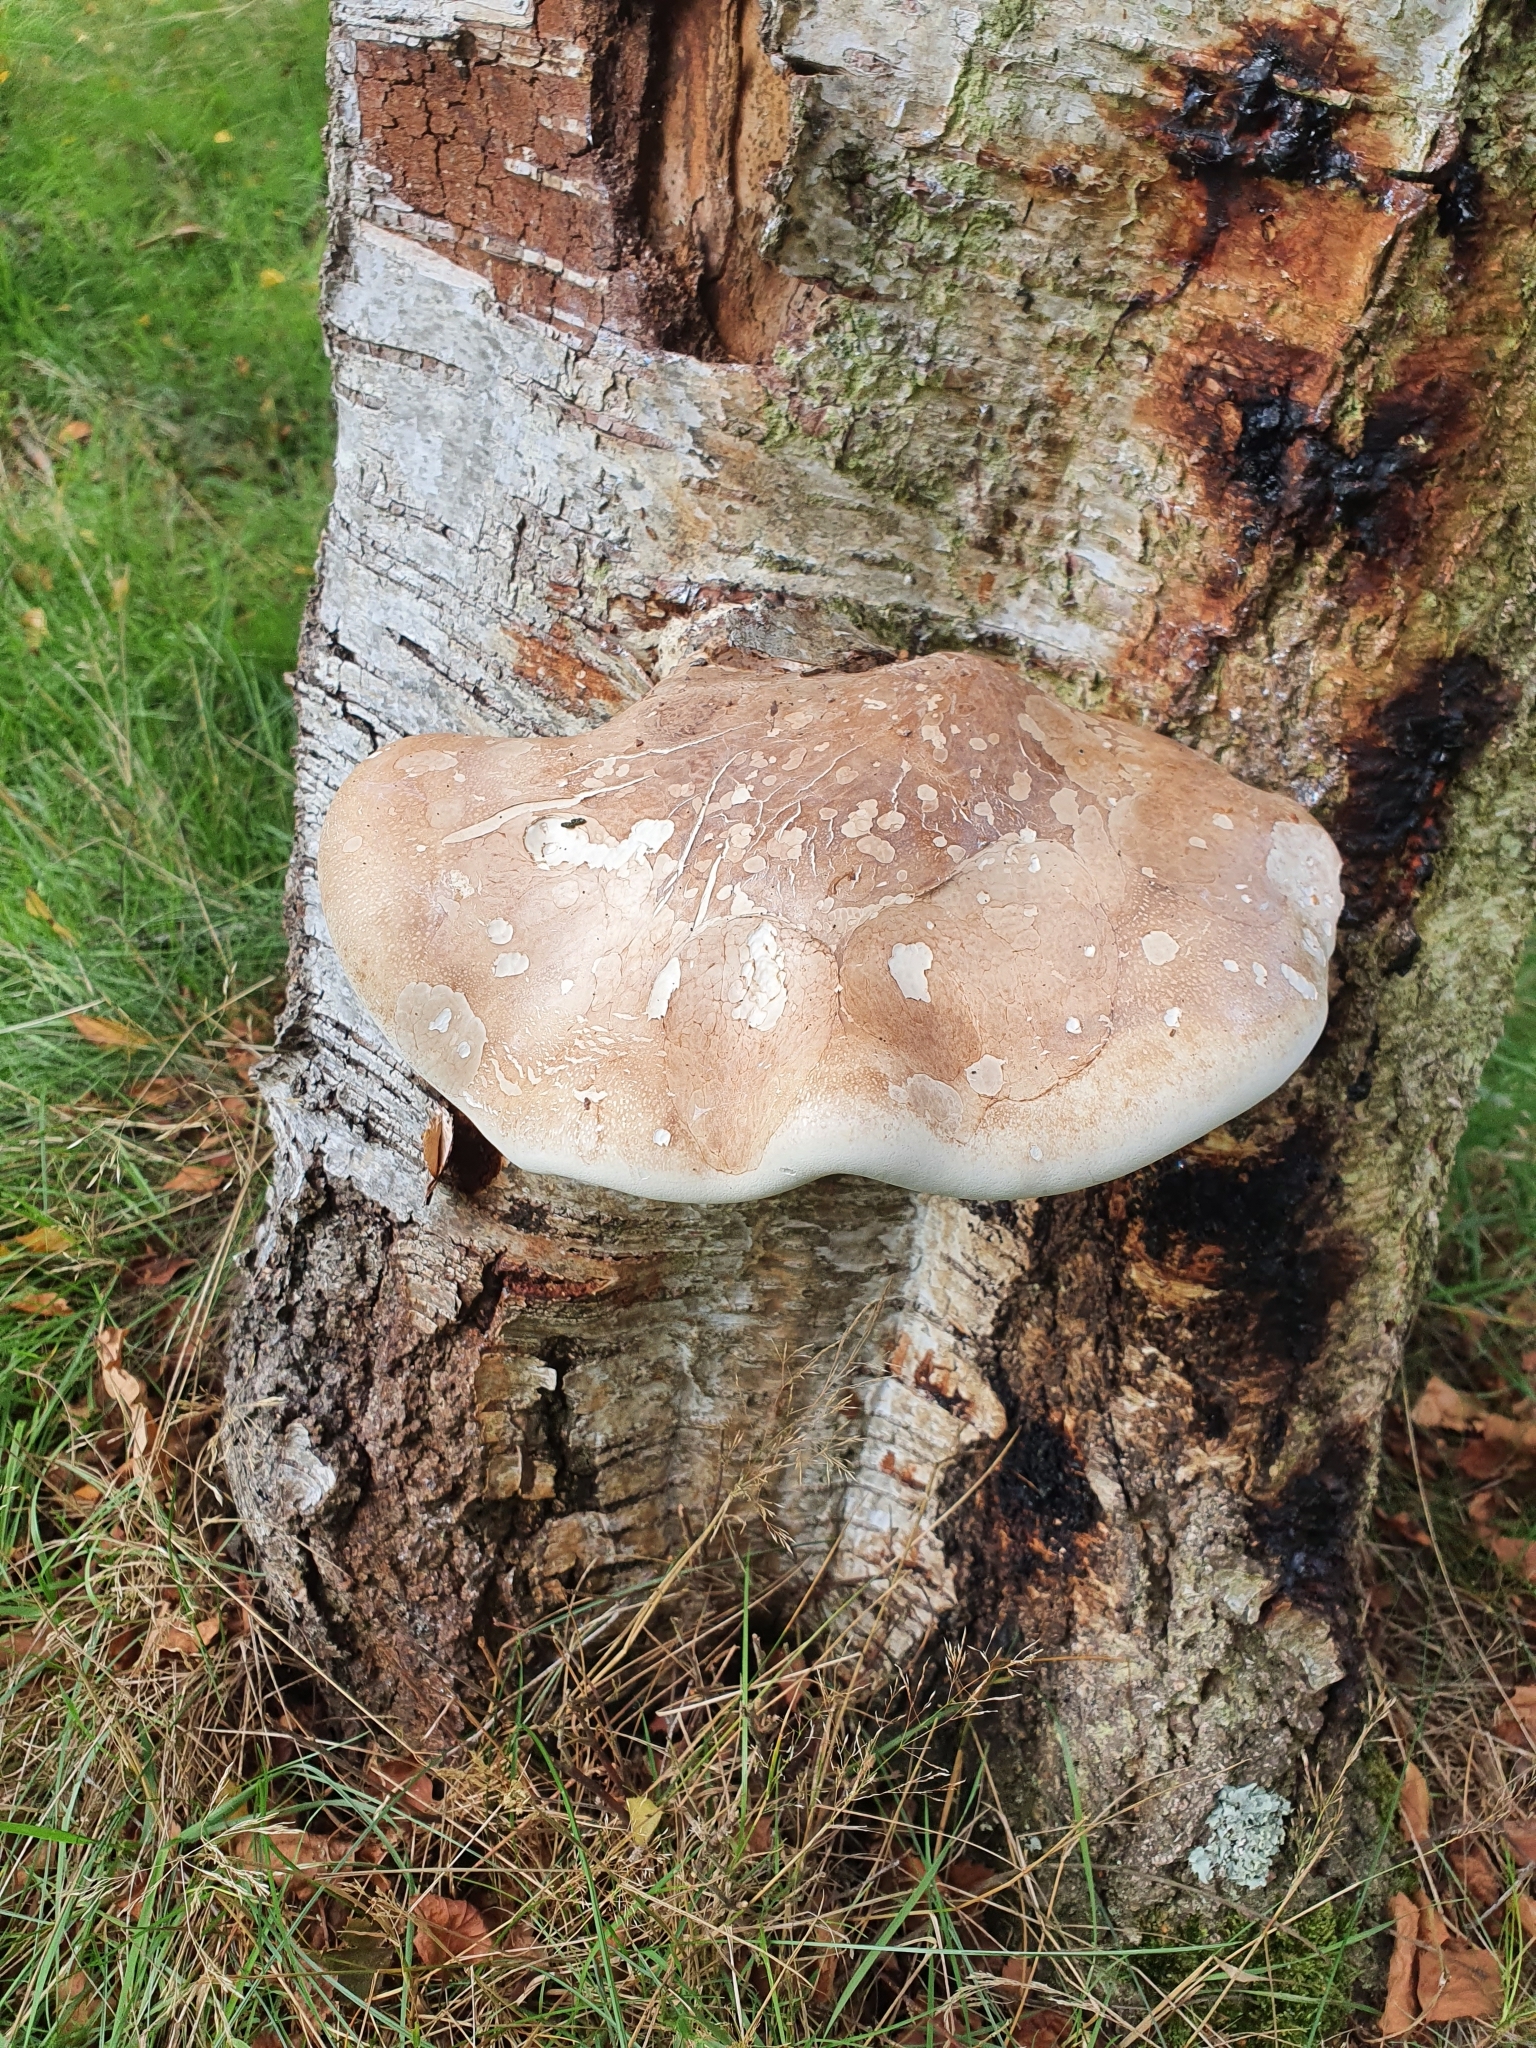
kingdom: Fungi
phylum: Basidiomycota
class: Agaricomycetes
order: Polyporales
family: Fomitopsidaceae
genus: Fomitopsis
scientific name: Fomitopsis betulina
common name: Birch polypore
